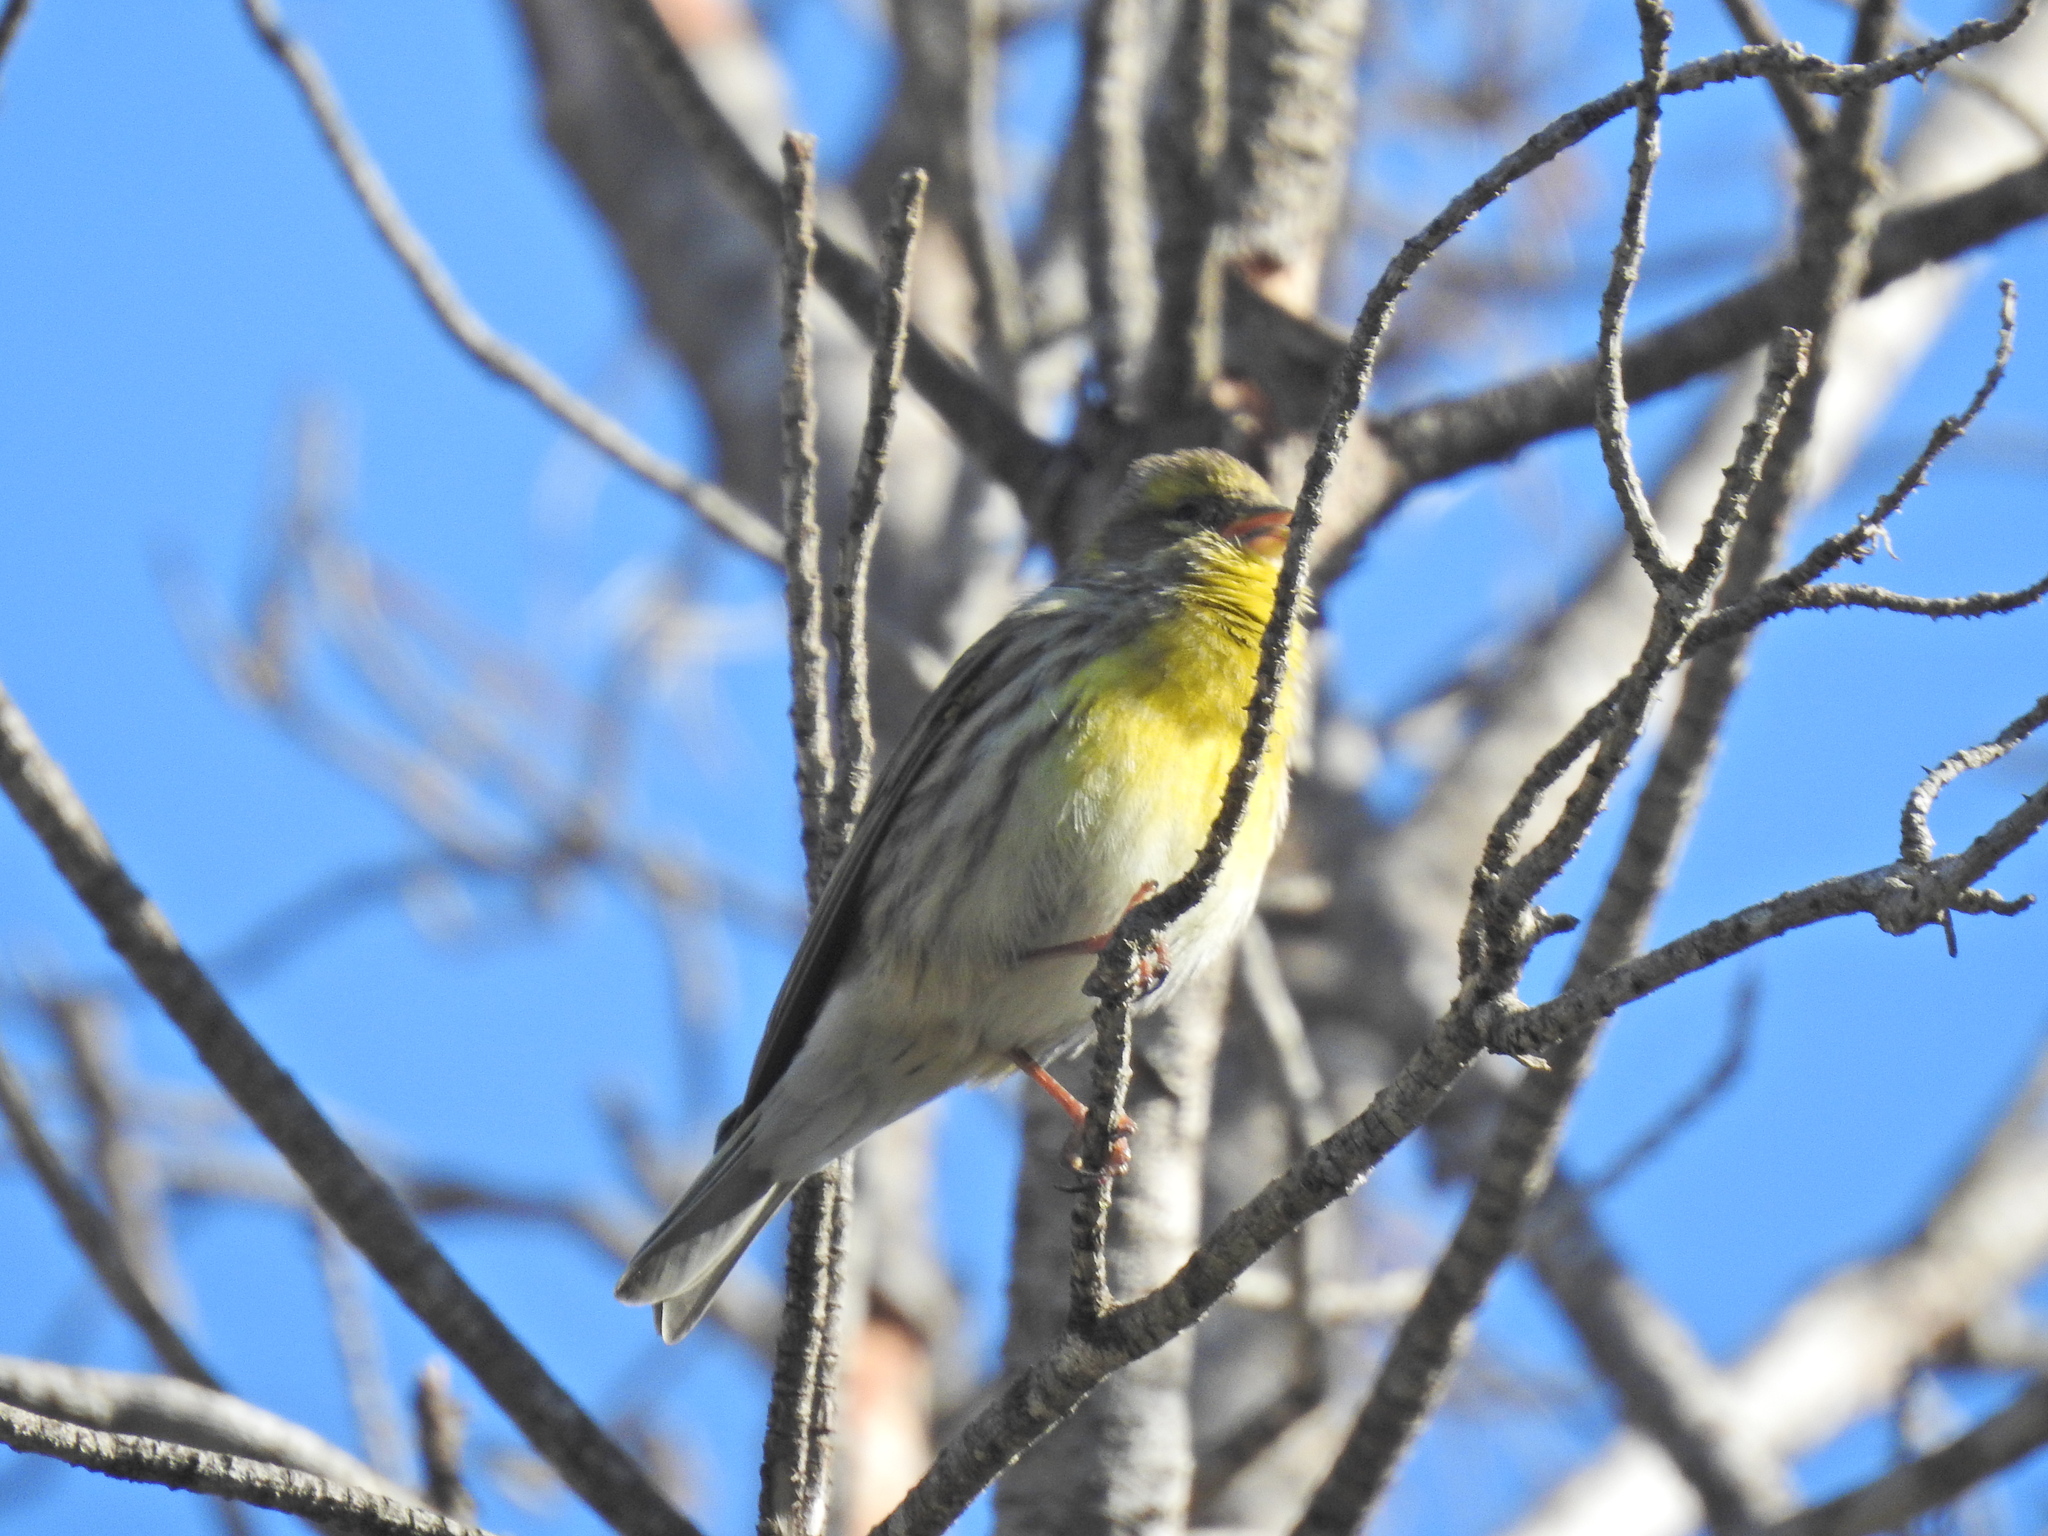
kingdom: Animalia
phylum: Chordata
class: Aves
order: Passeriformes
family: Fringillidae
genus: Serinus
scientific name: Serinus serinus
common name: European serin
